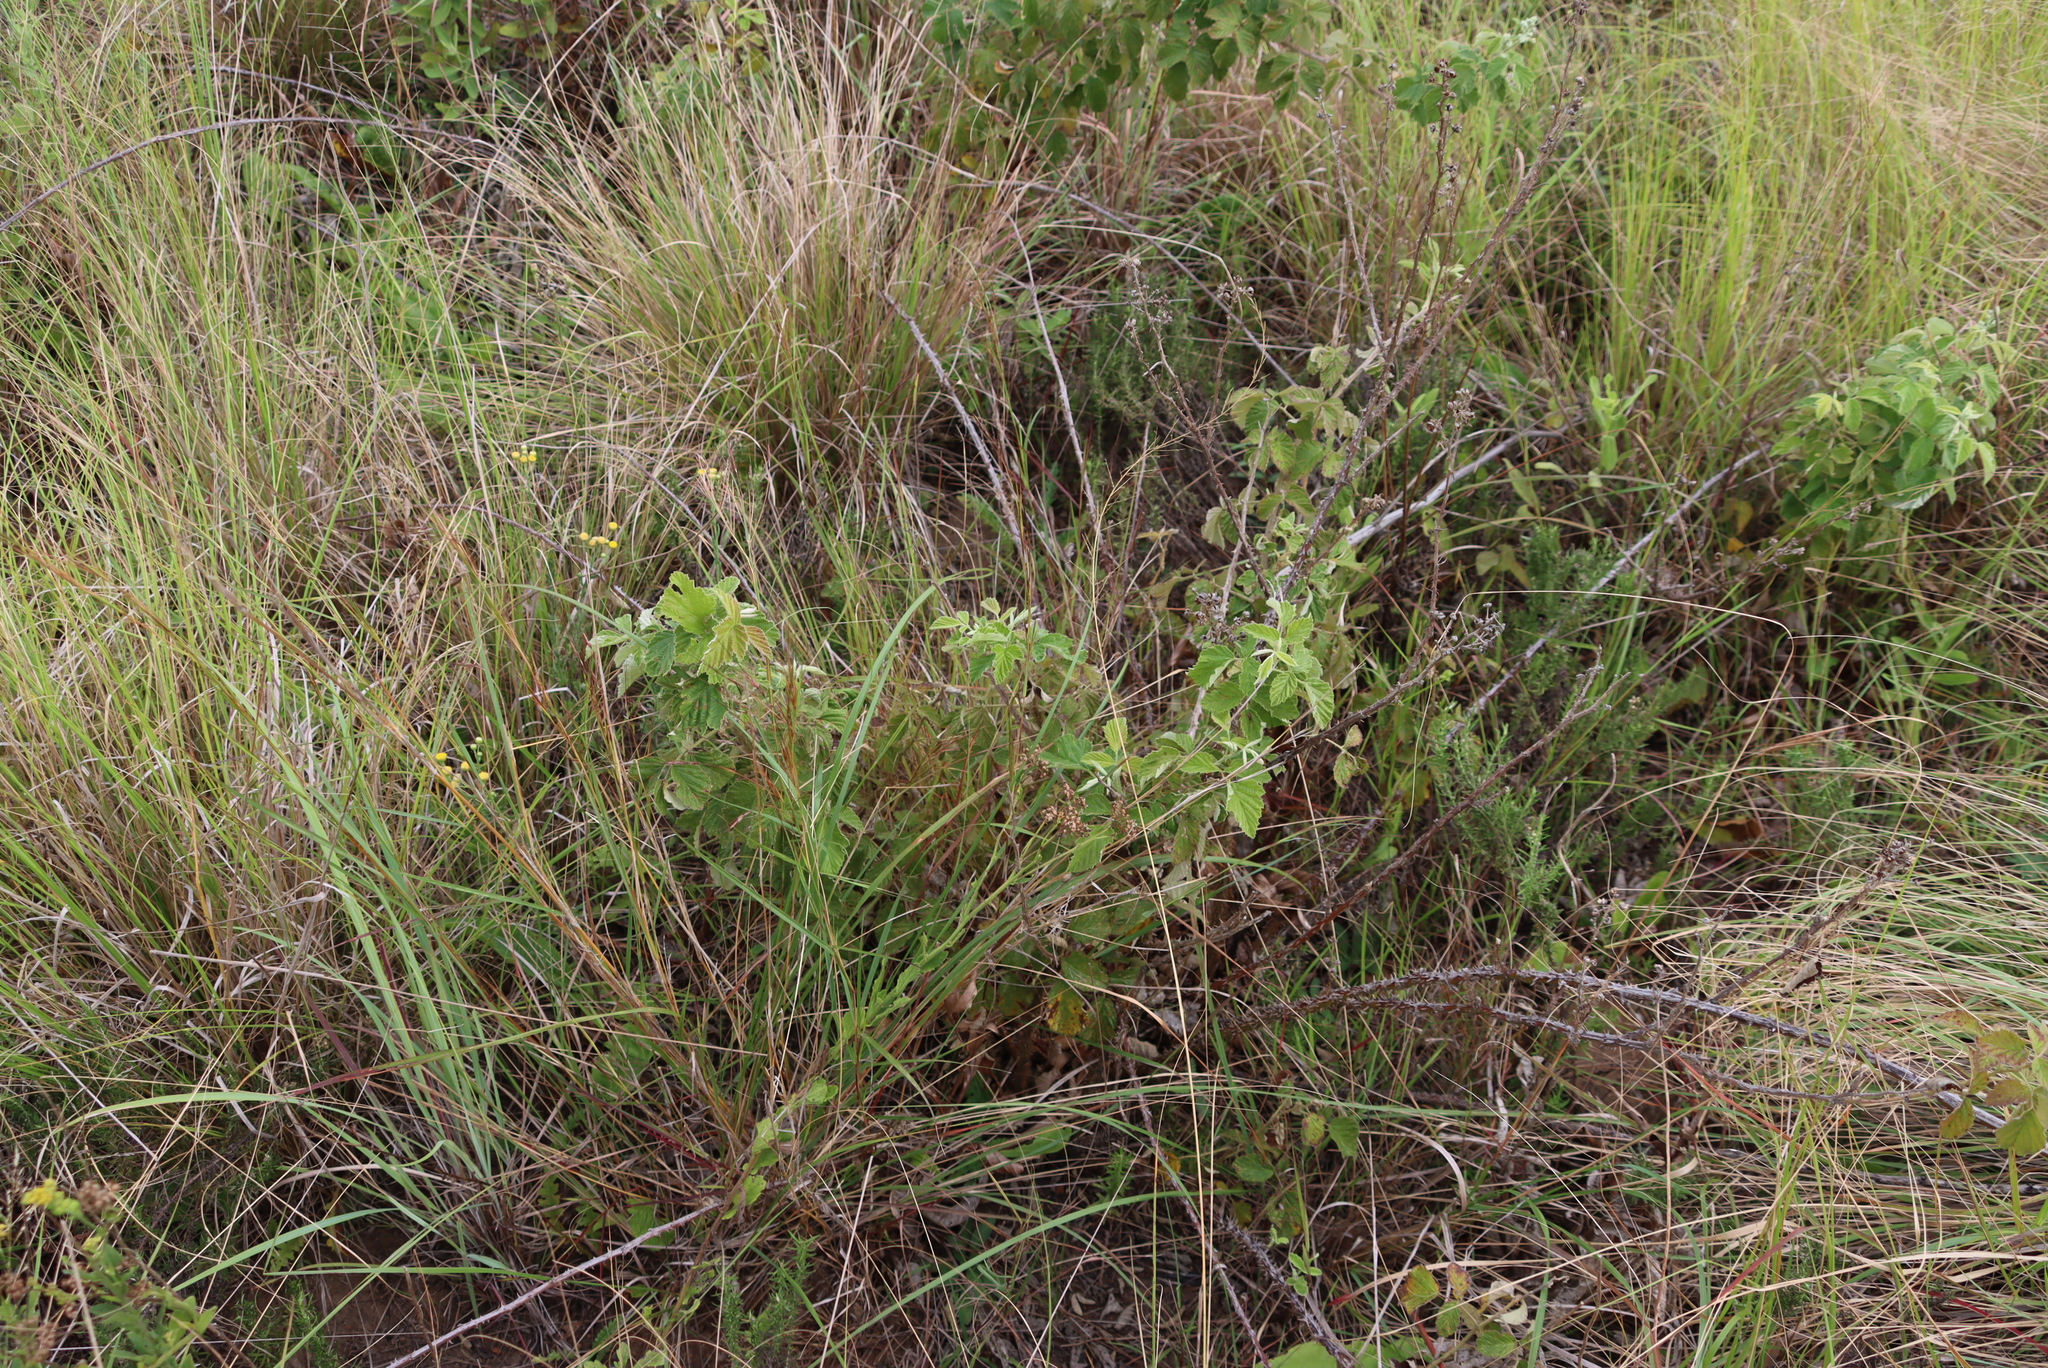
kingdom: Plantae
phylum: Tracheophyta
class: Magnoliopsida
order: Rosales
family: Rosaceae
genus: Rubus
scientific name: Rubus rigidus
